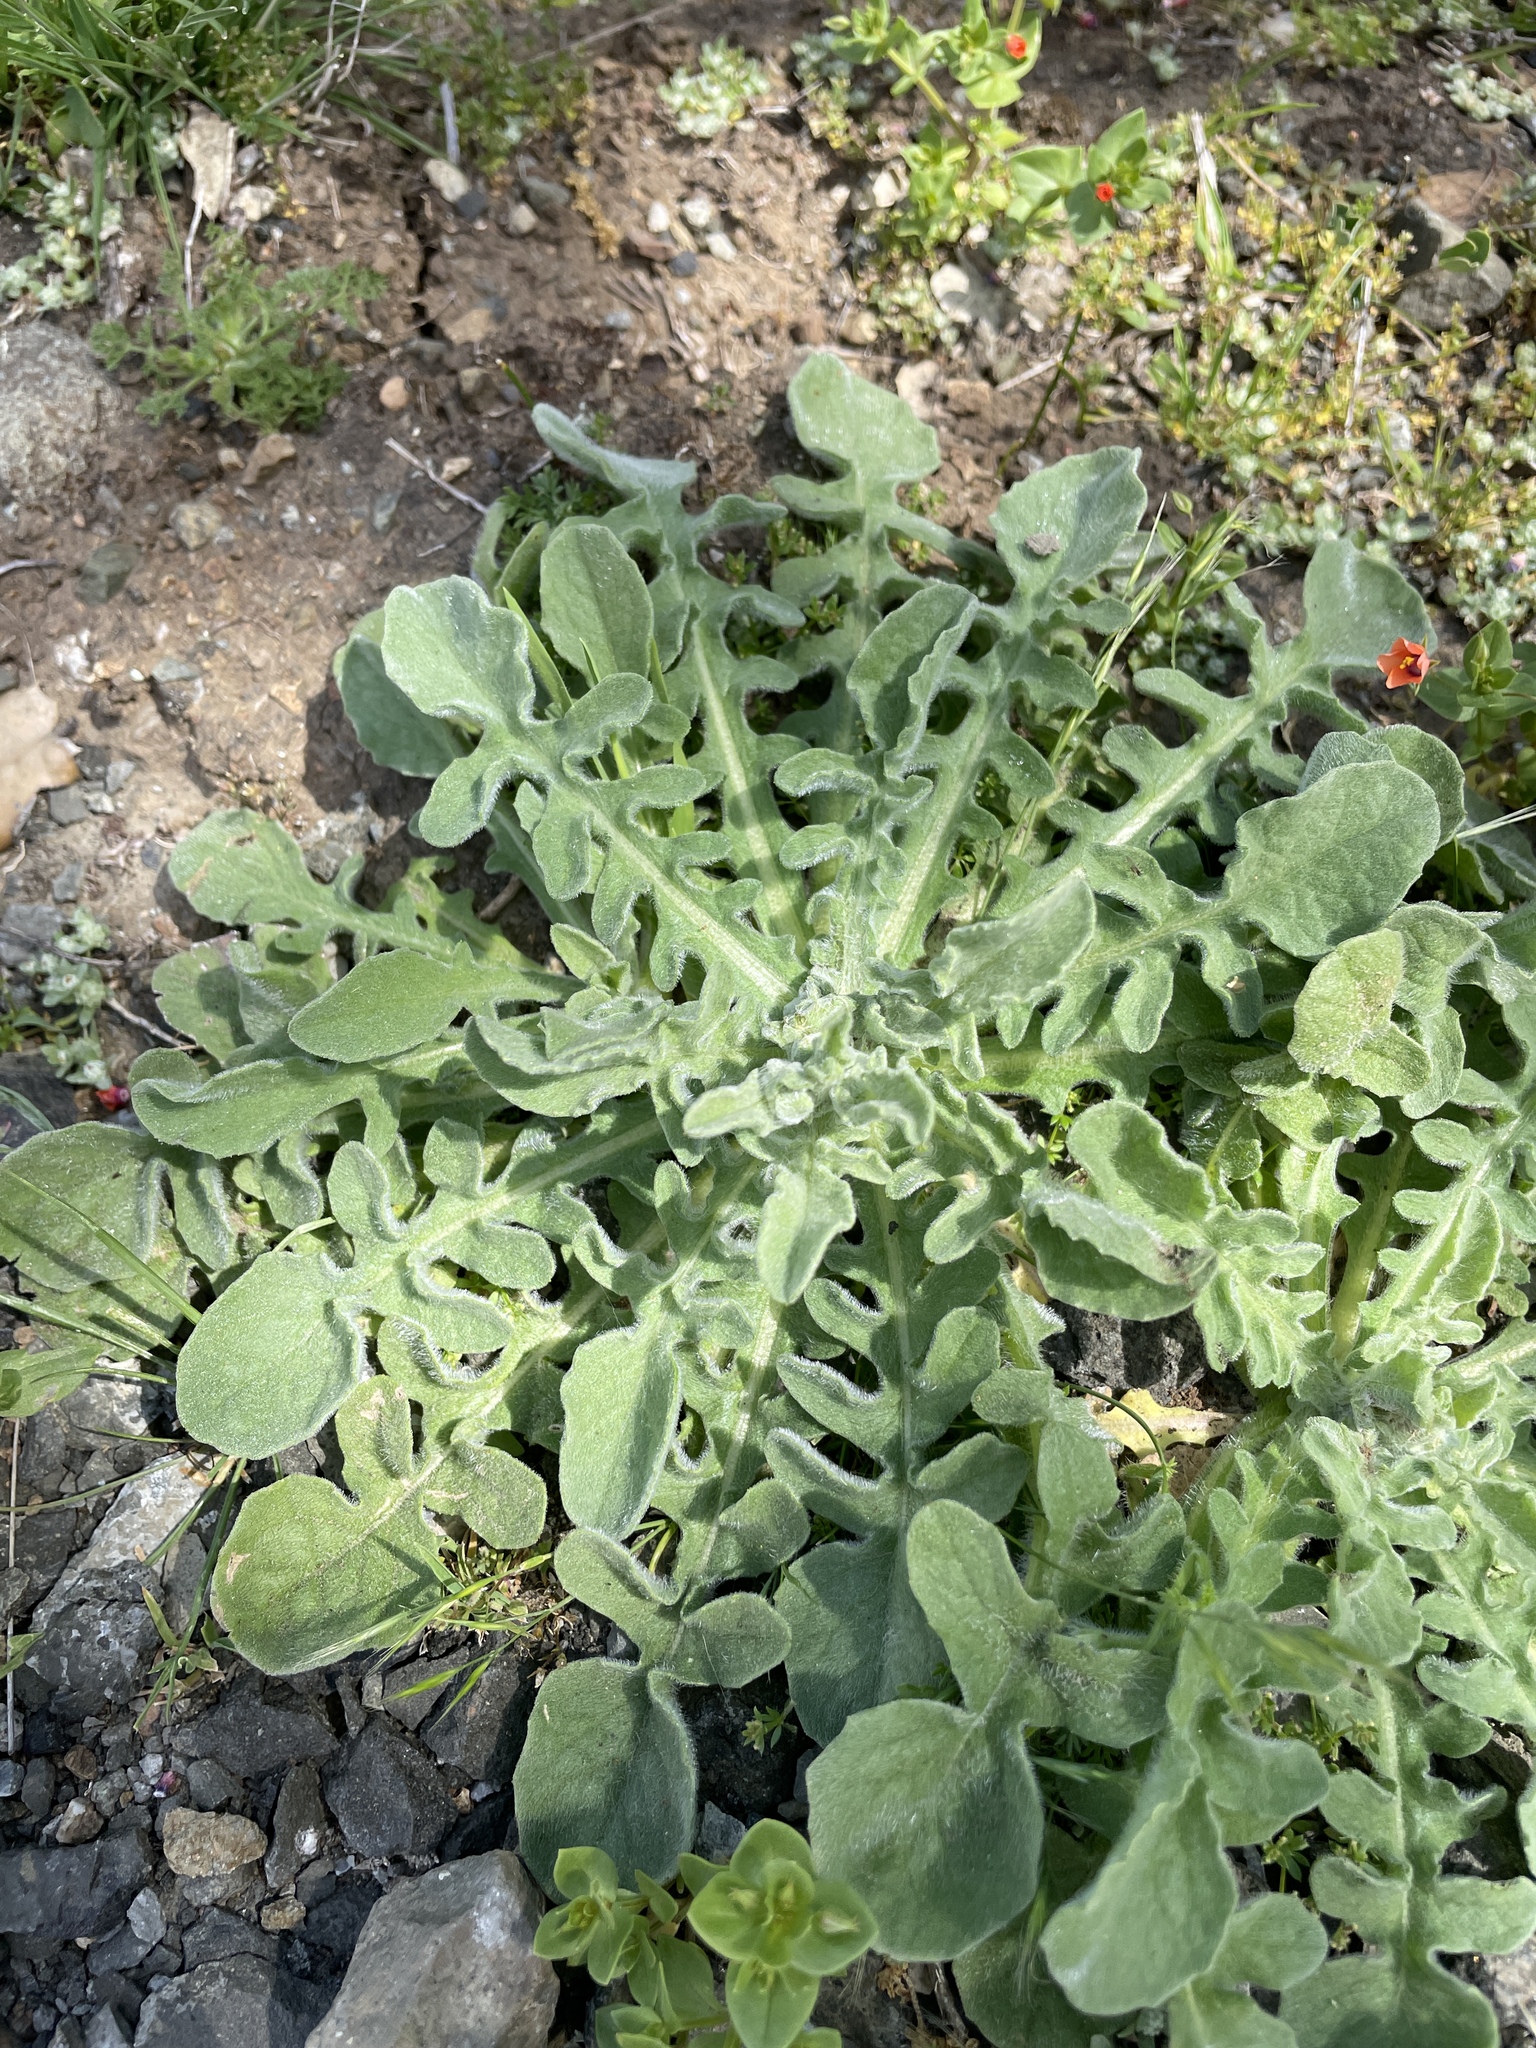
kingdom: Plantae
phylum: Tracheophyta
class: Magnoliopsida
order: Asterales
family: Asteraceae
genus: Centaurea
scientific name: Centaurea melitensis
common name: Maltese star-thistle
